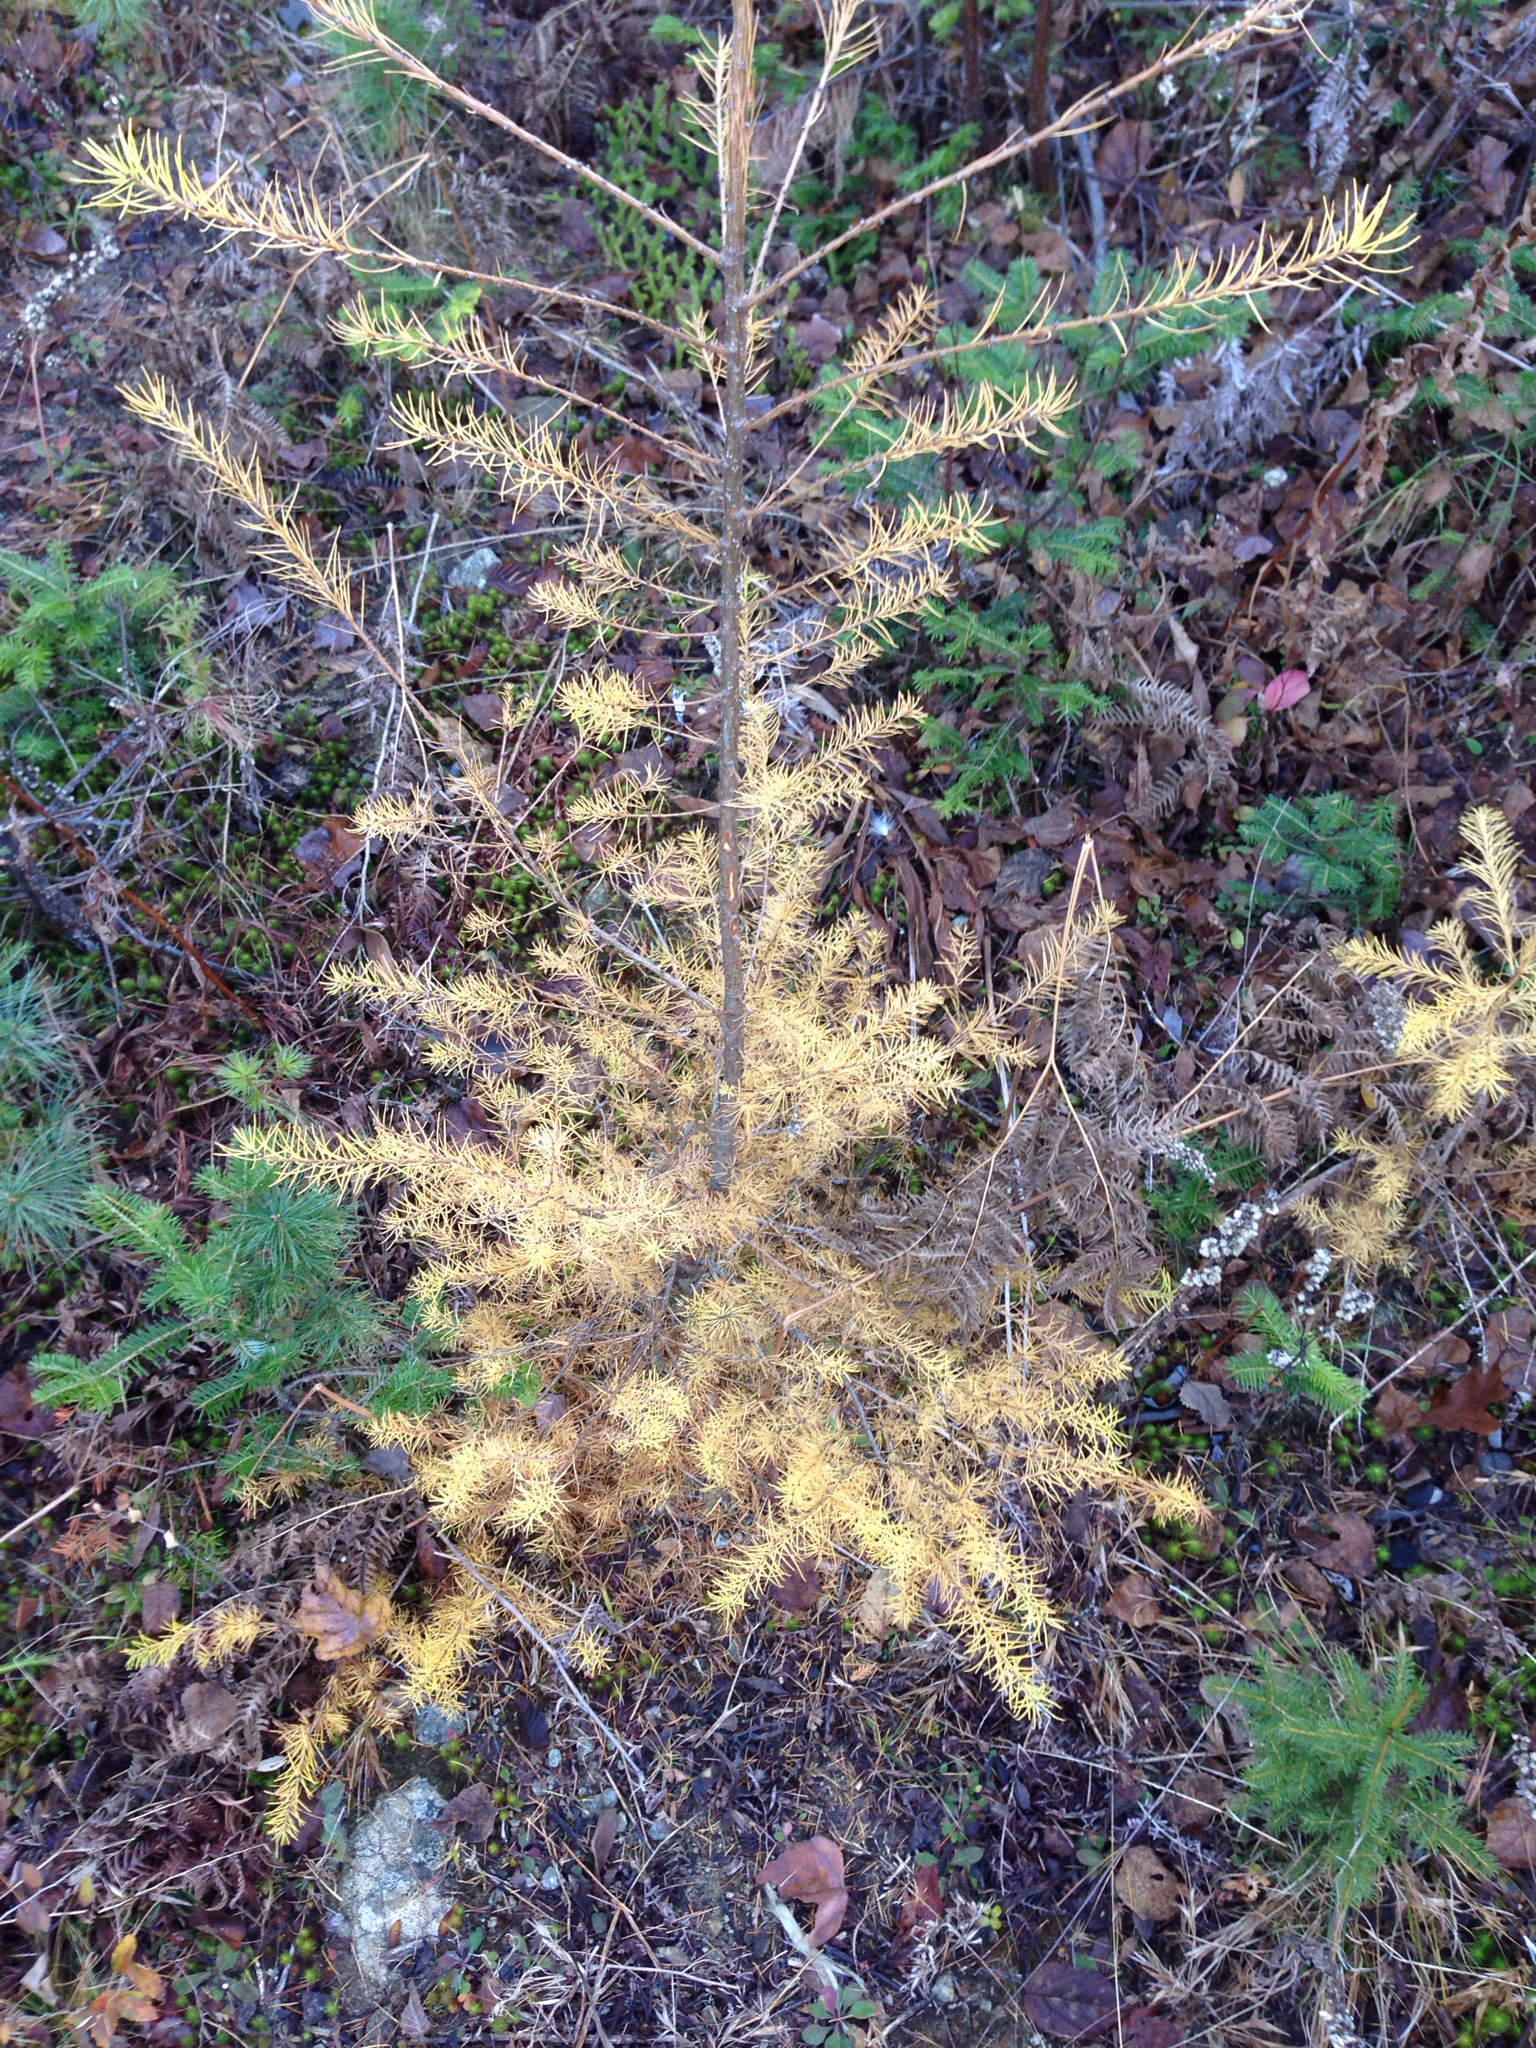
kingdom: Plantae
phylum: Tracheophyta
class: Pinopsida
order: Pinales
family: Pinaceae
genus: Larix
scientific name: Larix laricina
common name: American larch
